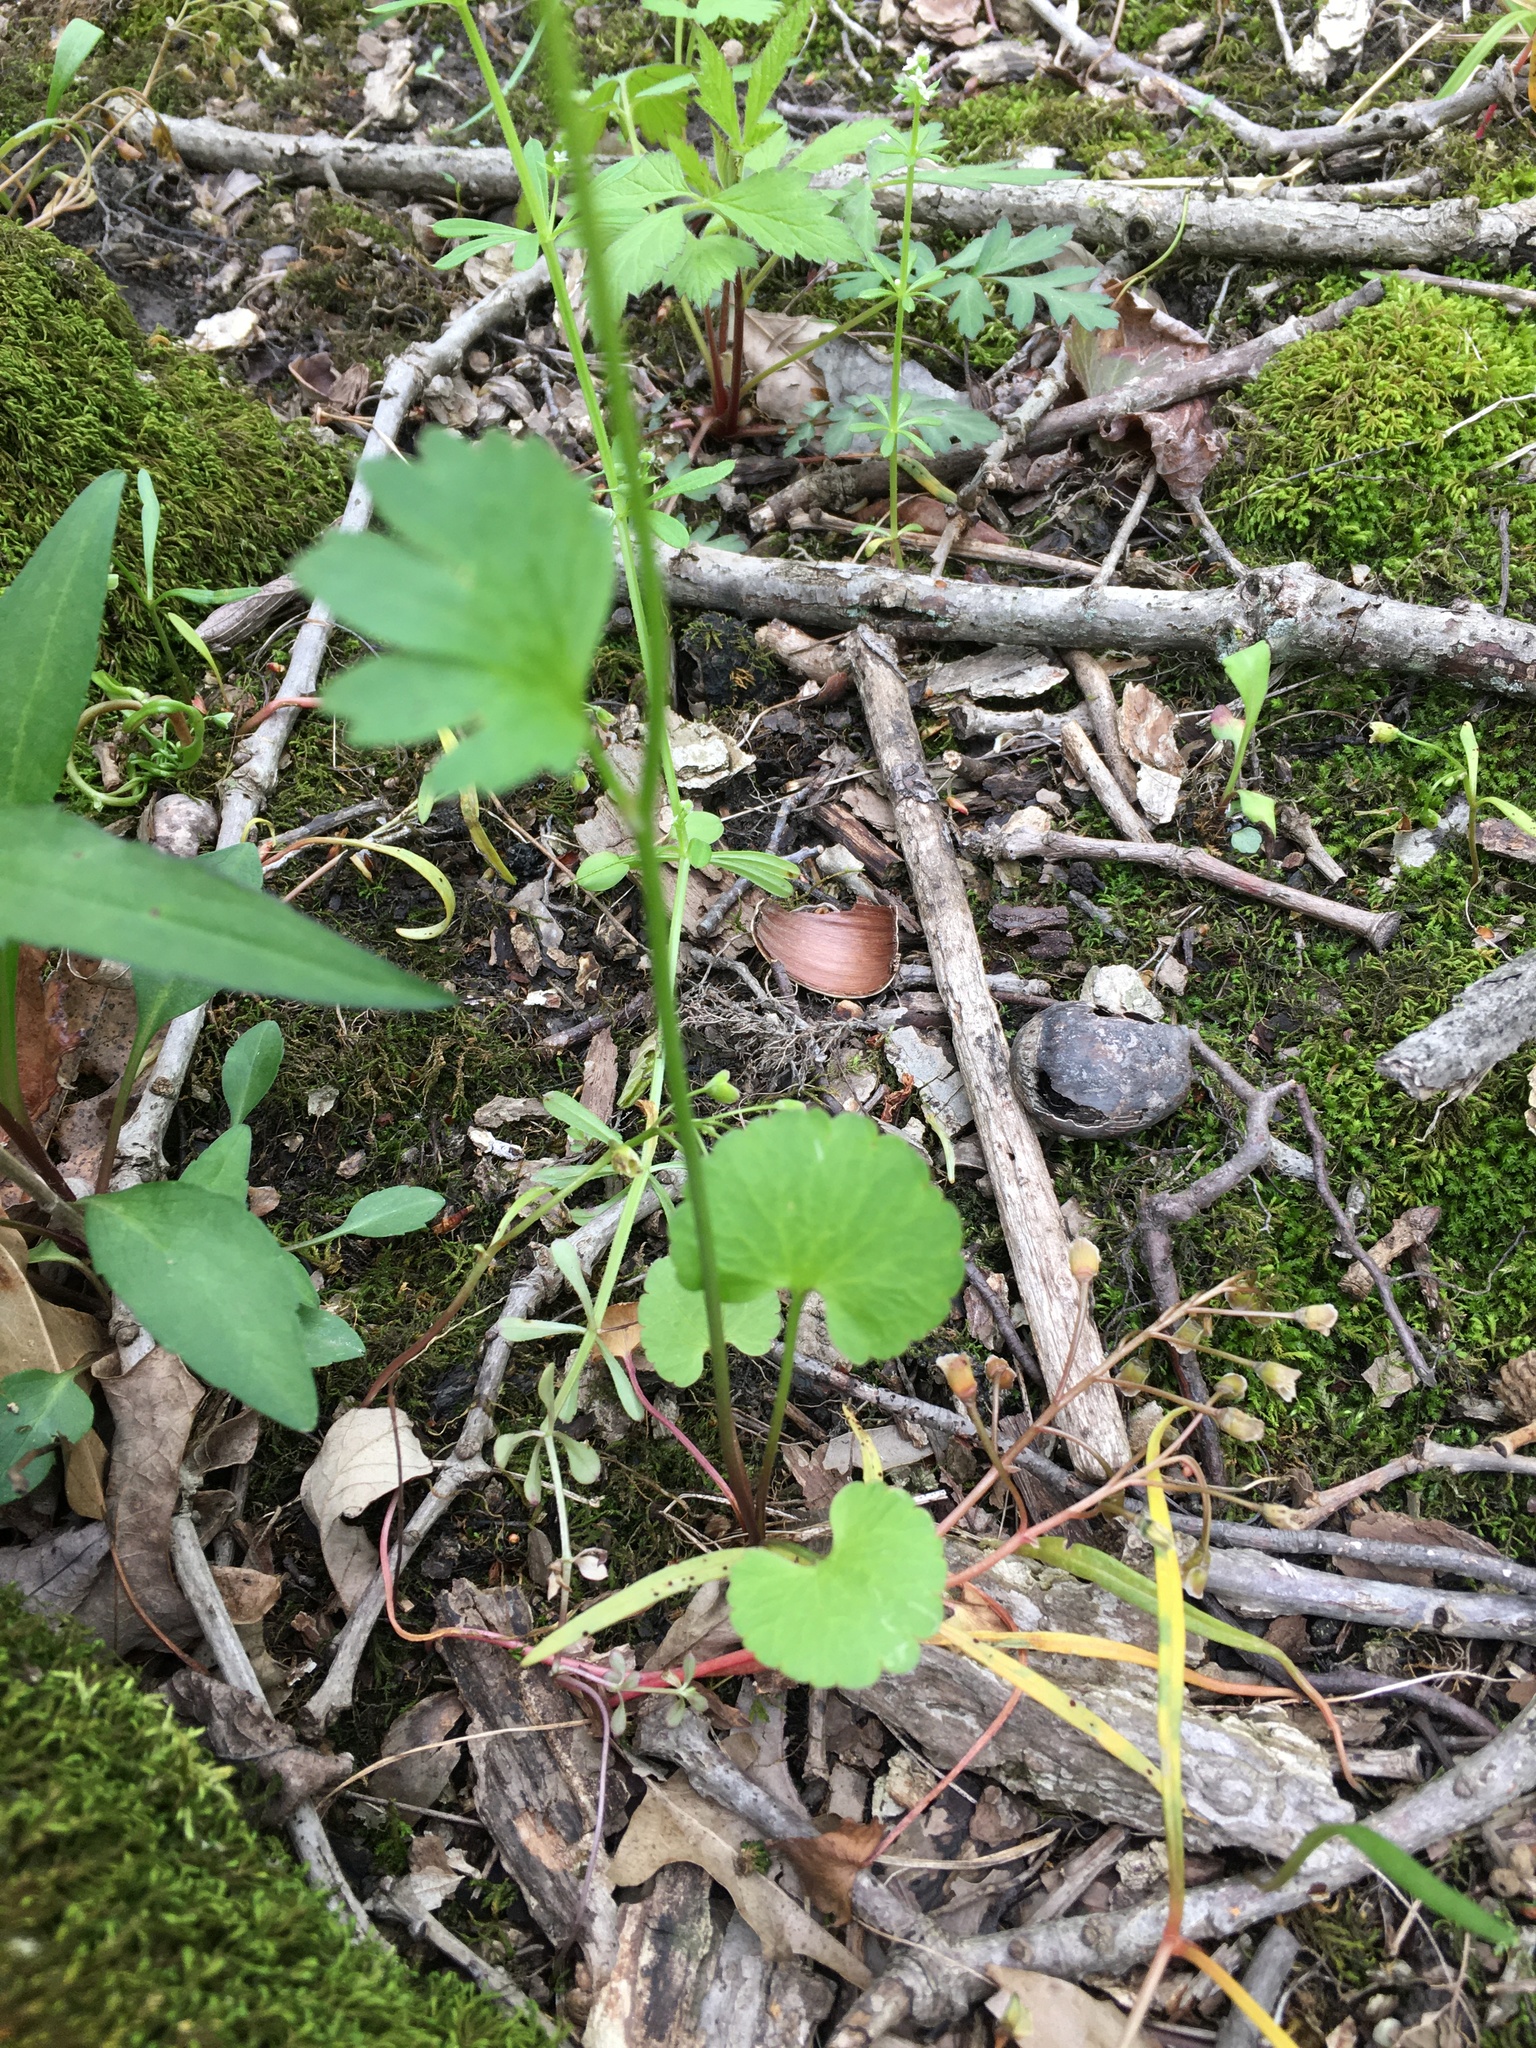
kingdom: Plantae
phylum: Tracheophyta
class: Magnoliopsida
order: Ranunculales
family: Ranunculaceae
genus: Ranunculus
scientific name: Ranunculus abortivus
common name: Early wood buttercup
